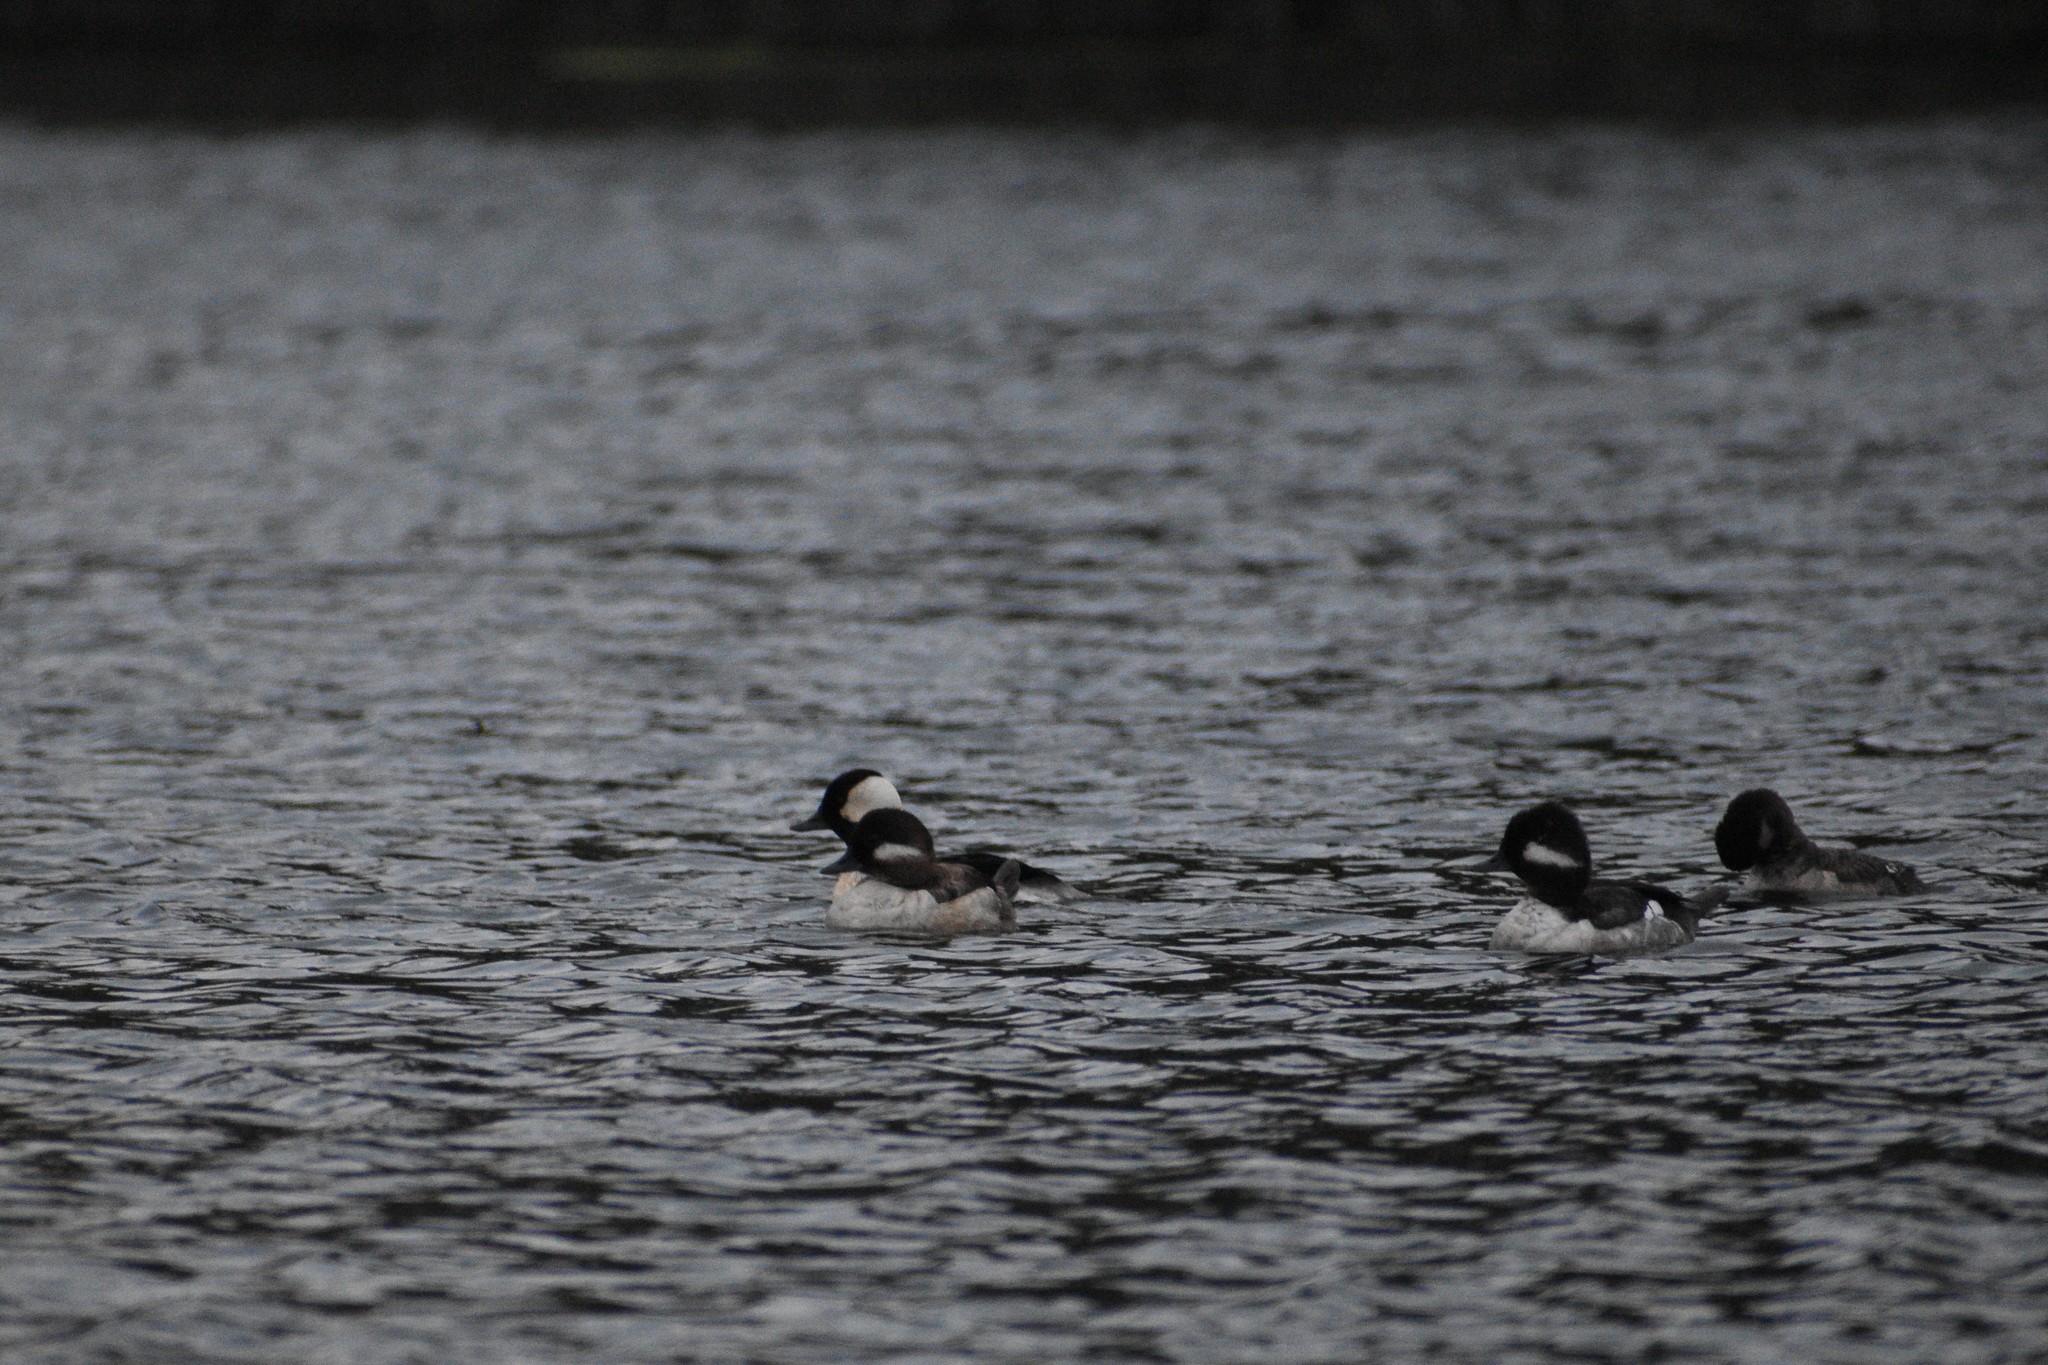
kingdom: Animalia
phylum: Chordata
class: Aves
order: Anseriformes
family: Anatidae
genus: Bucephala
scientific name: Bucephala albeola
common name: Bufflehead
